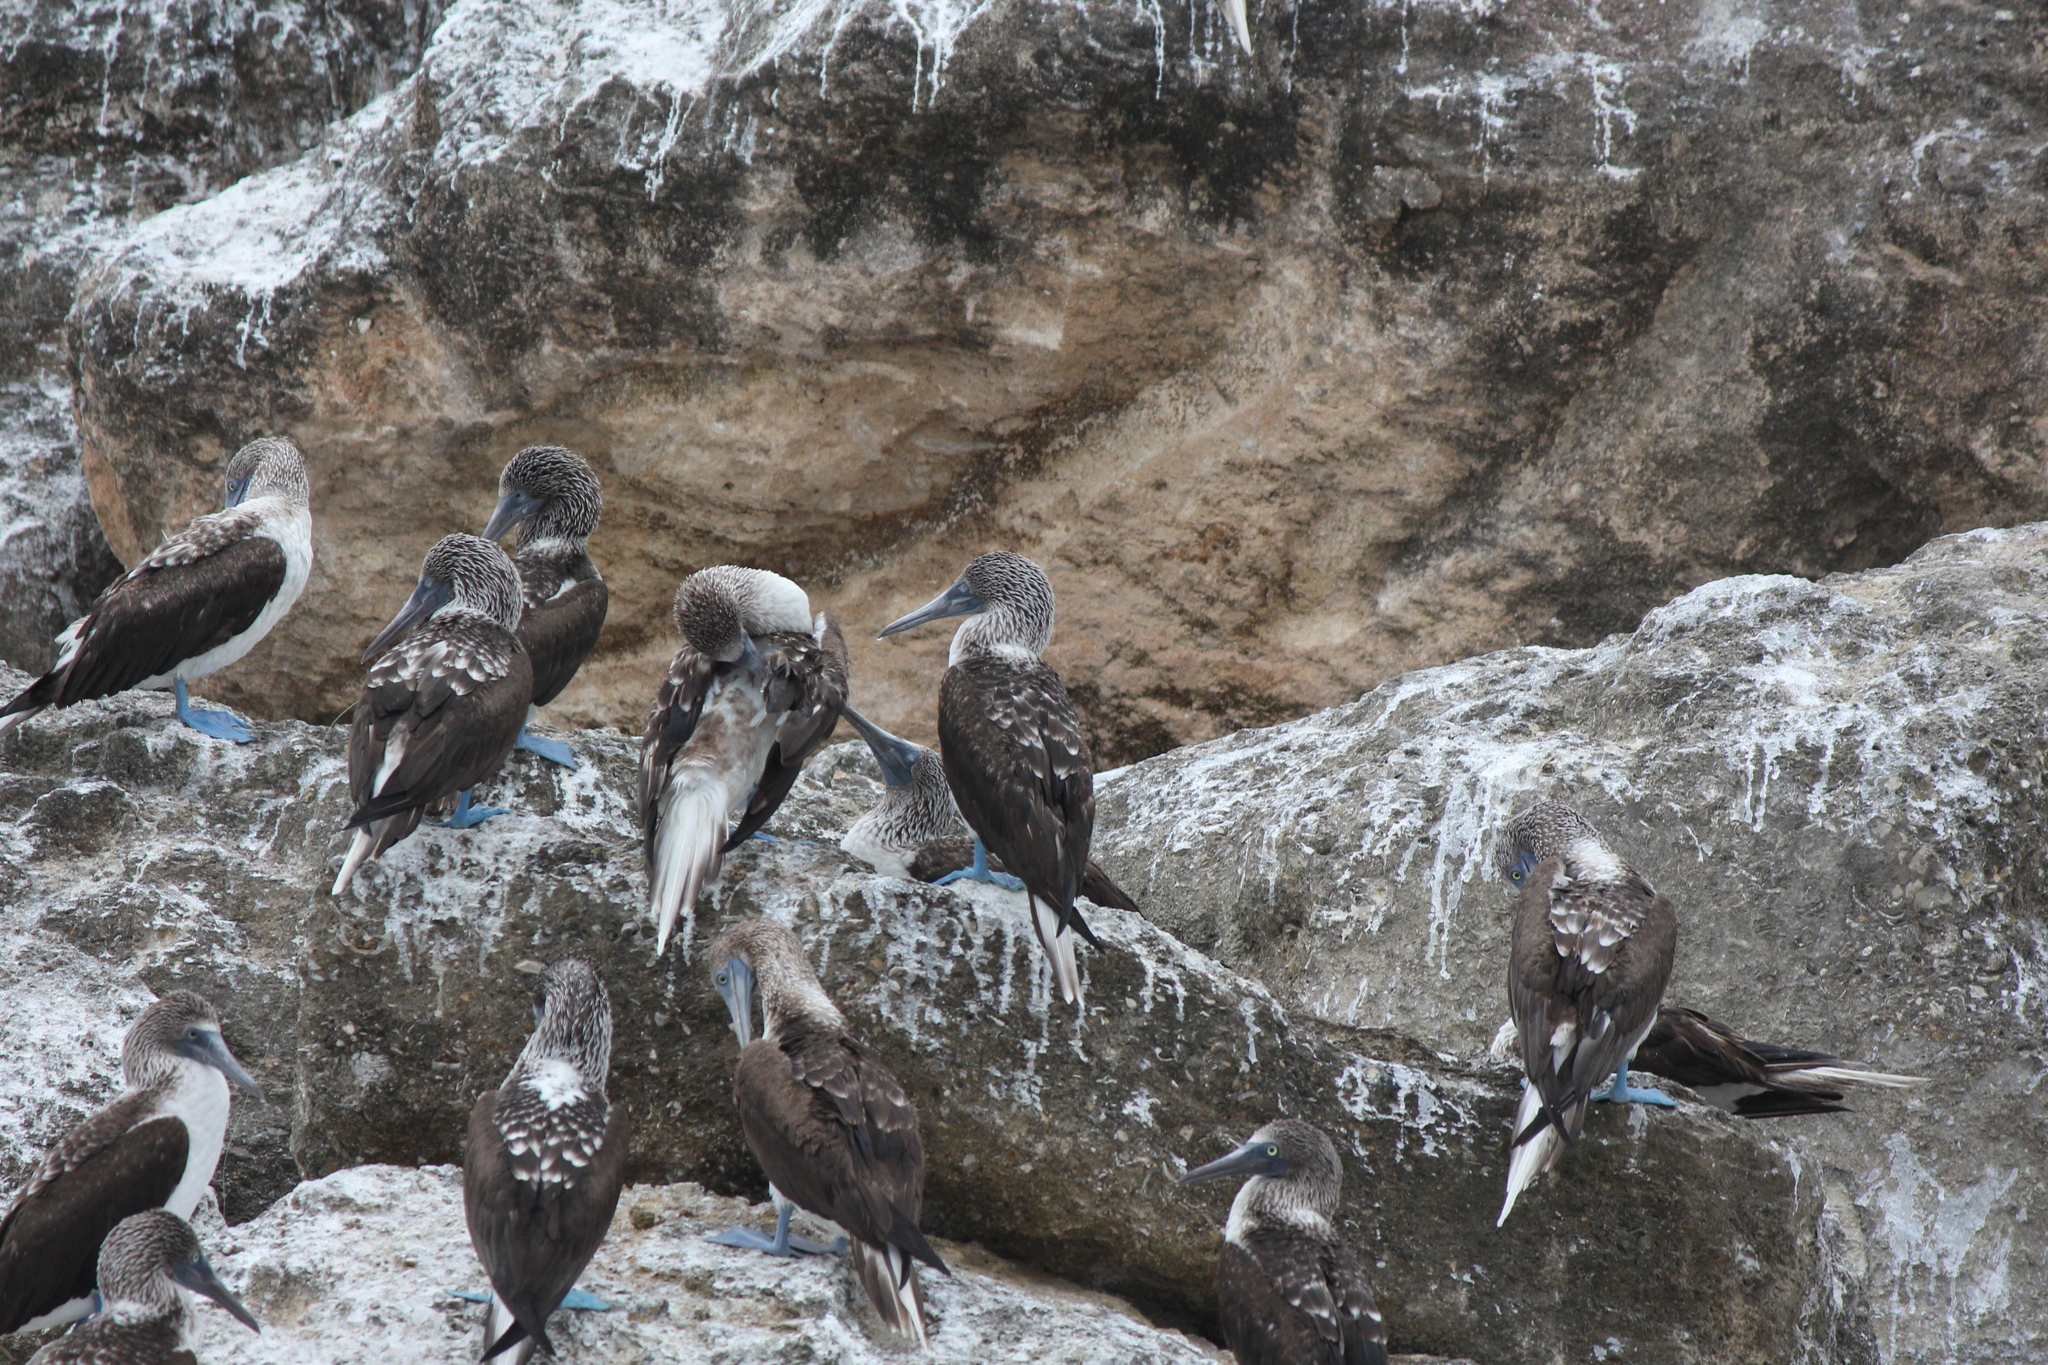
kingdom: Animalia
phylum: Chordata
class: Aves
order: Suliformes
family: Sulidae
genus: Sula
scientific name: Sula nebouxii
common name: Blue-footed booby
